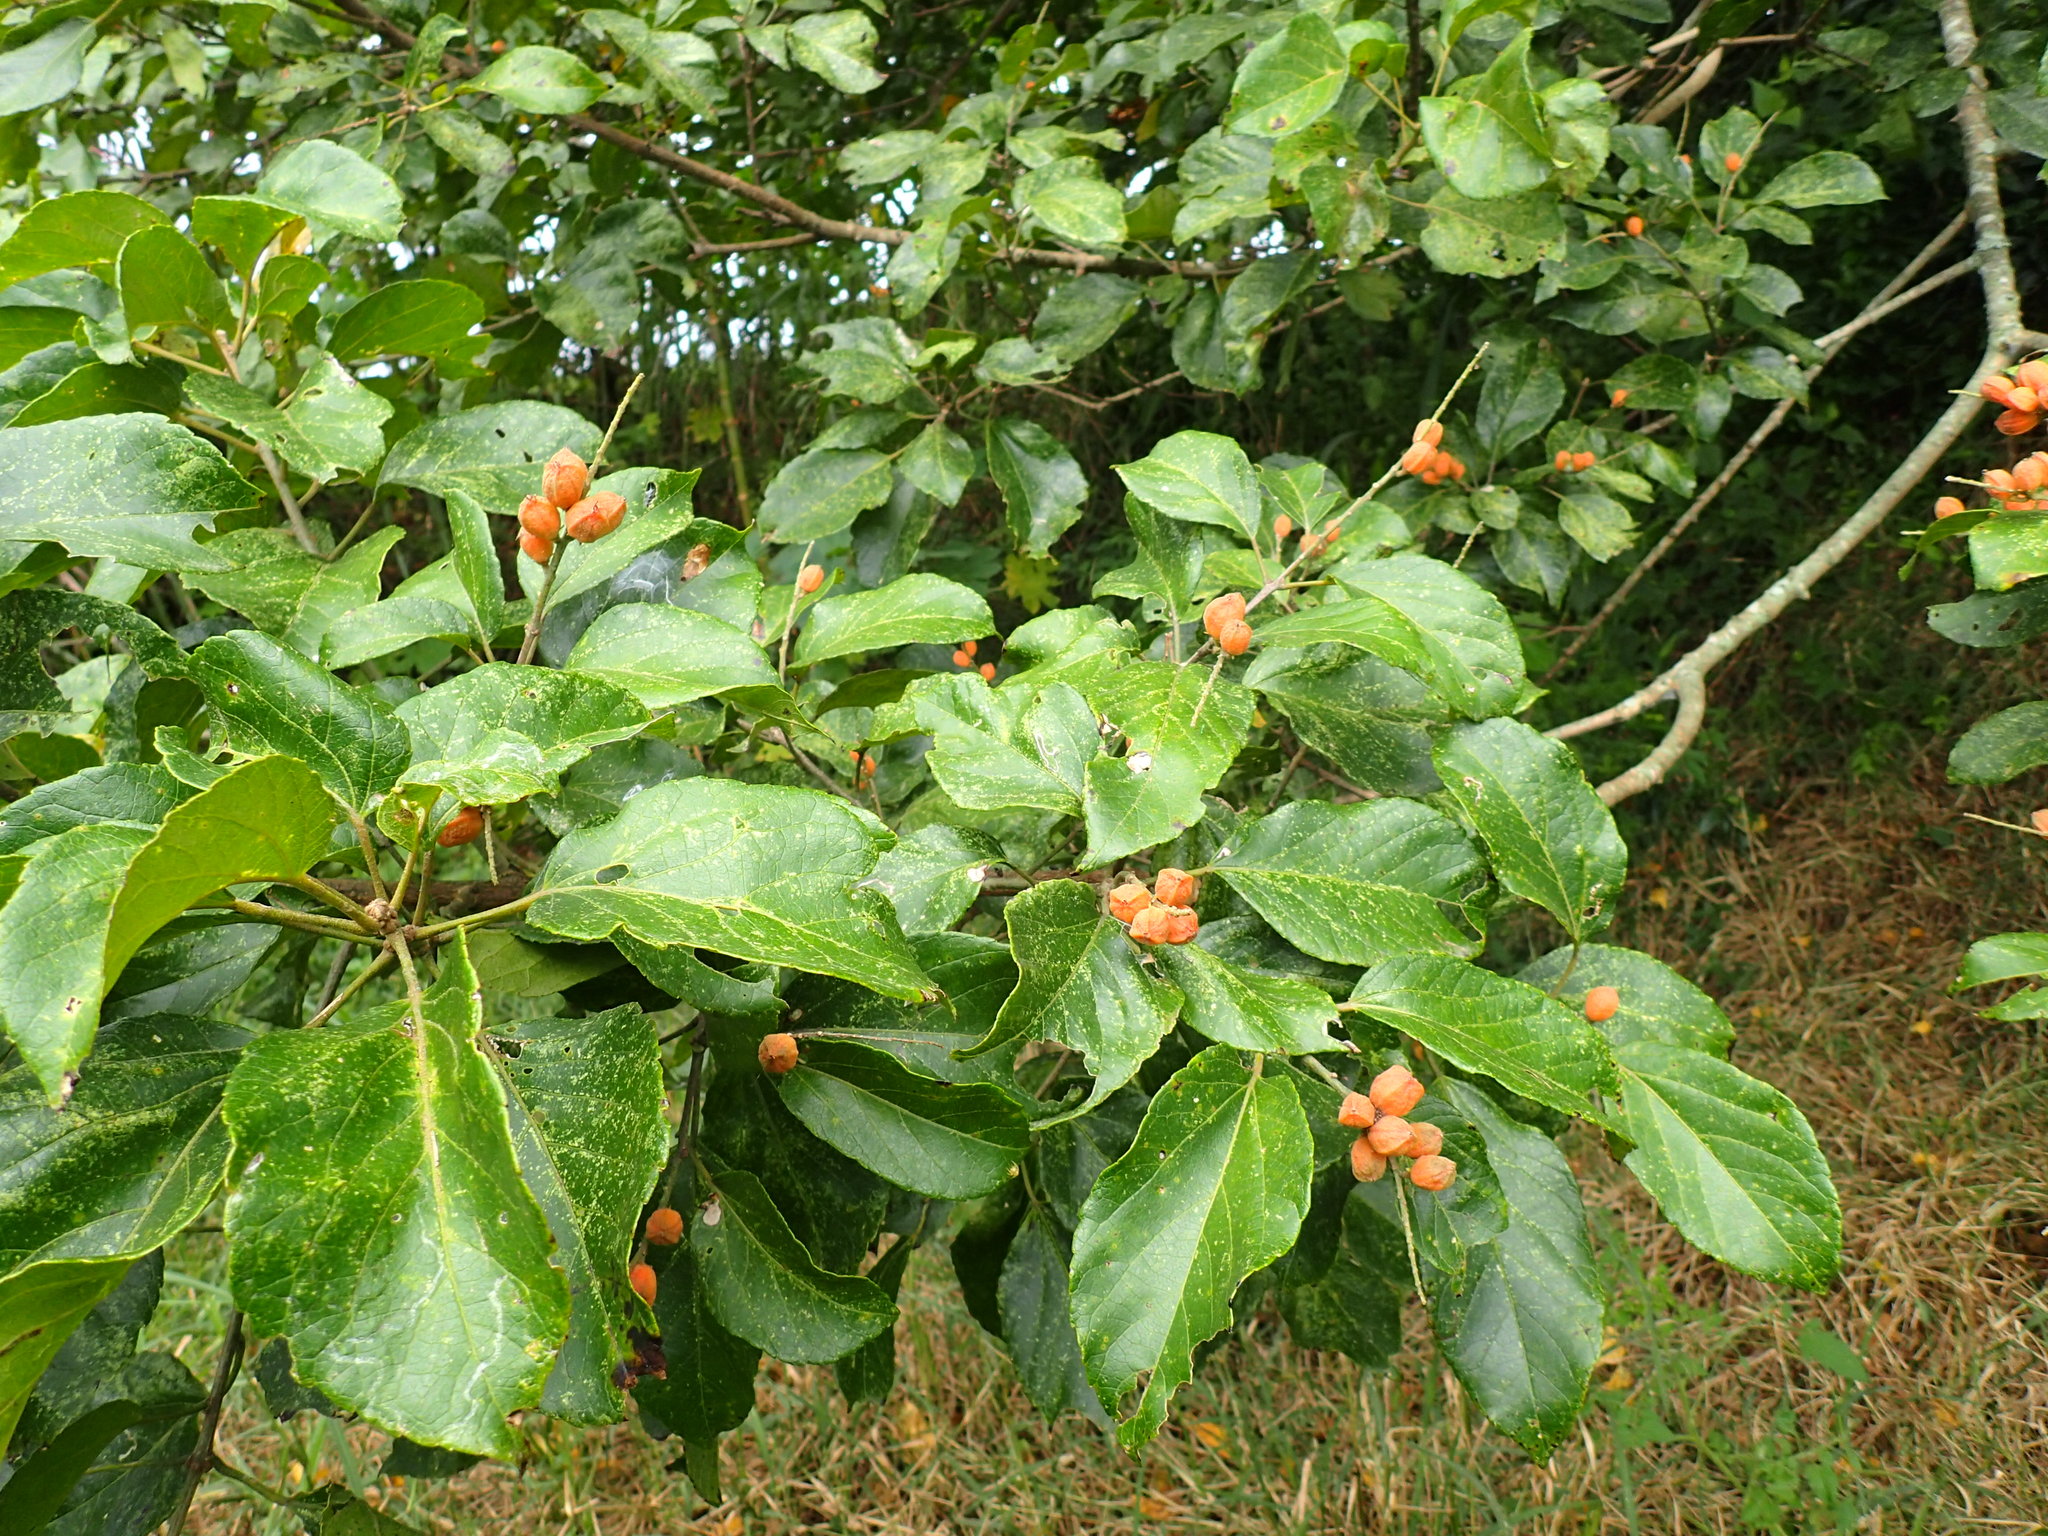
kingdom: Plantae
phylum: Tracheophyta
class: Magnoliopsida
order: Malpighiales
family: Euphorbiaceae
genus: Croton
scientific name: Croton sylvaticus
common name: Forest croton
